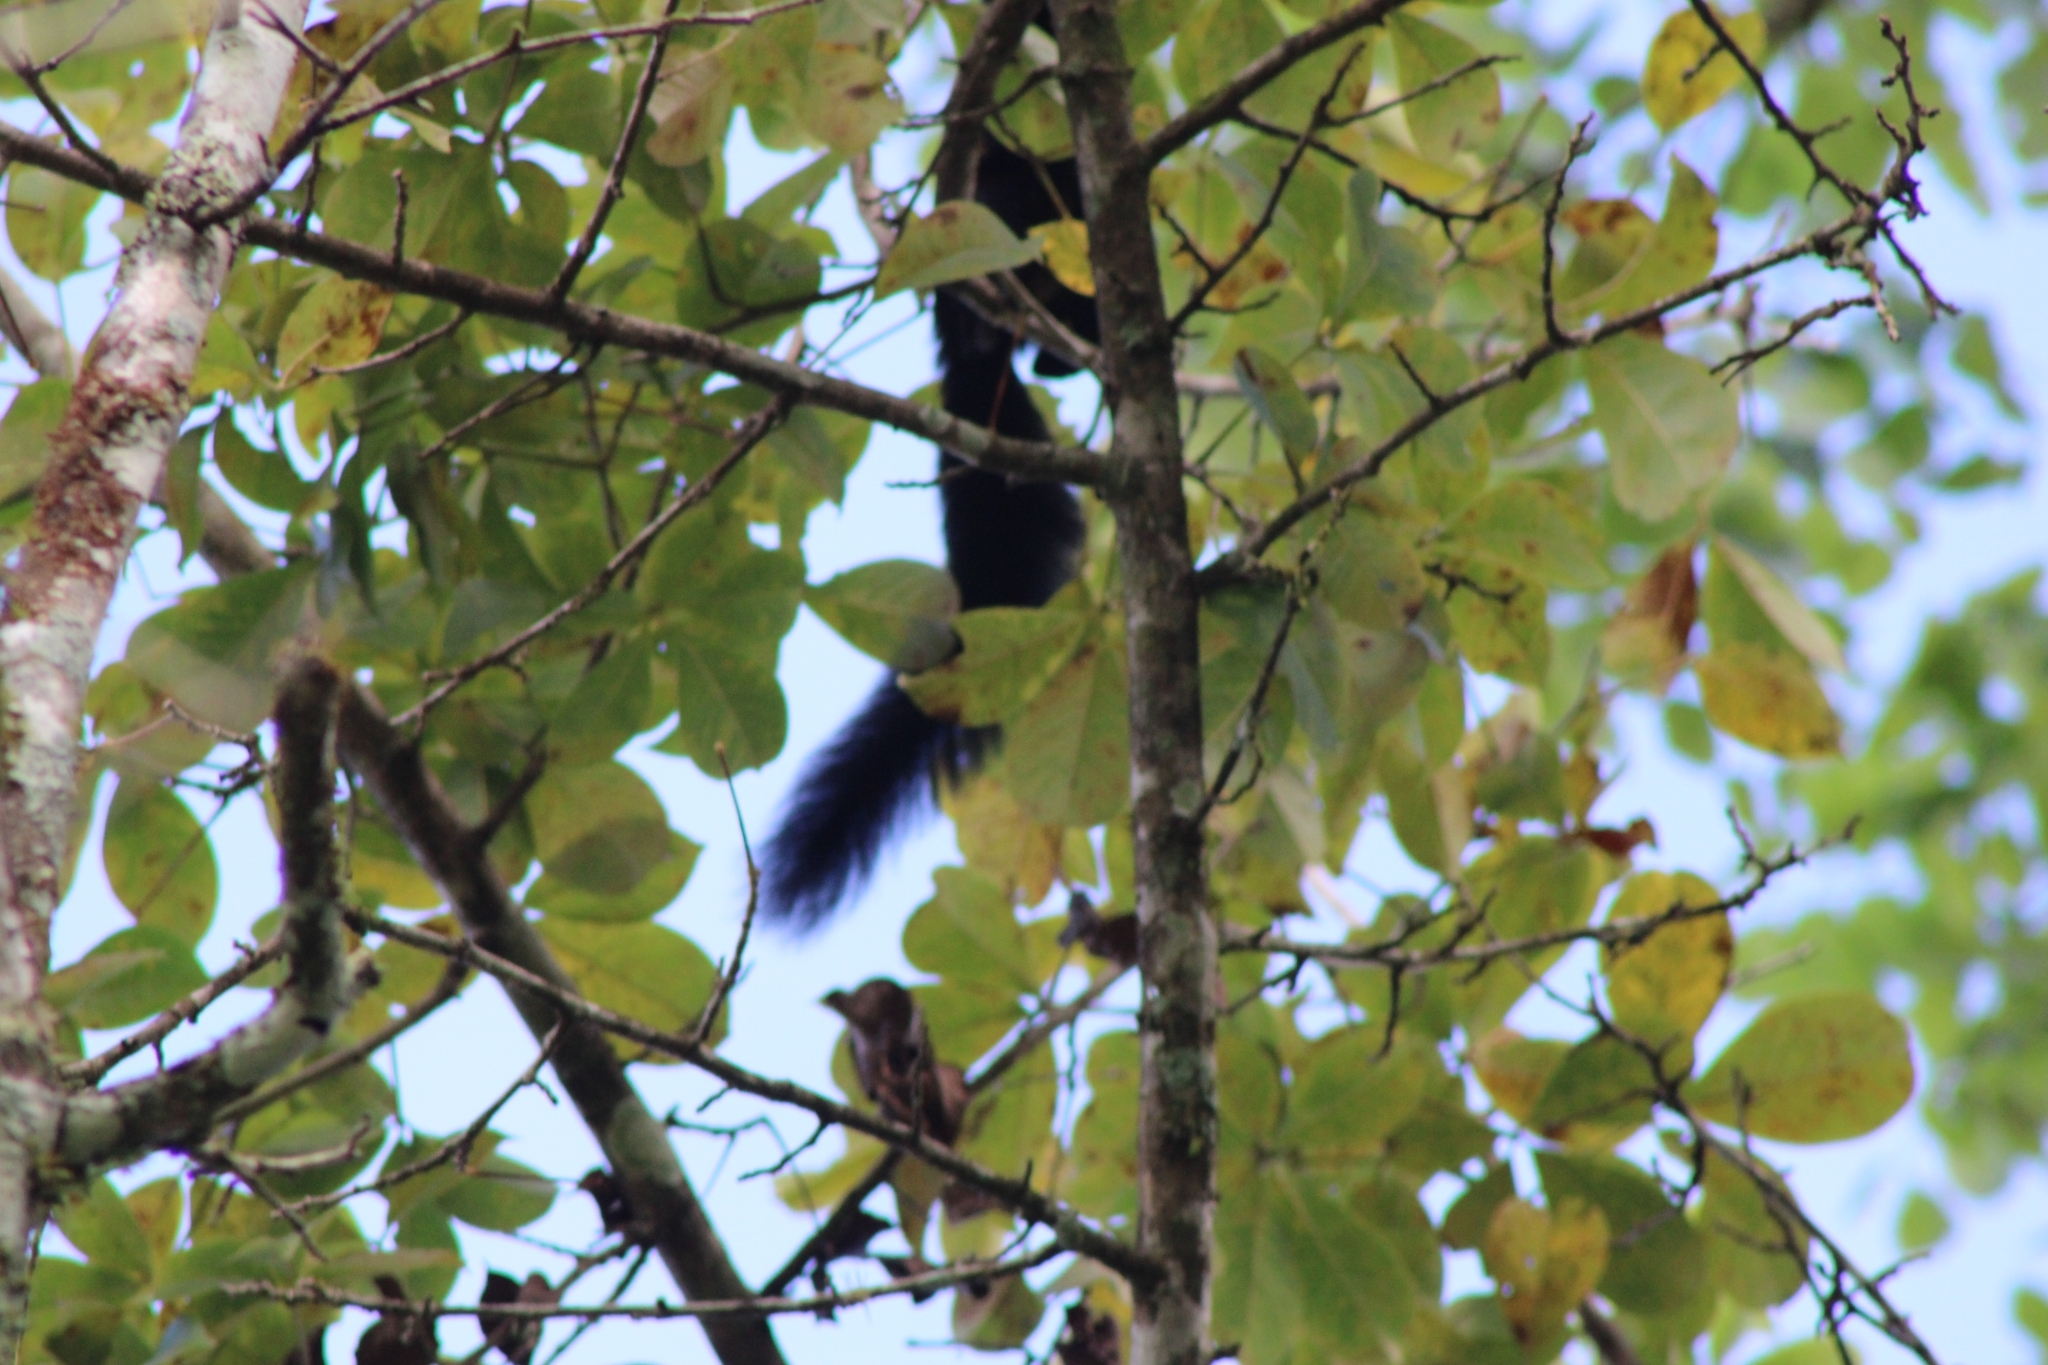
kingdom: Animalia
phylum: Chordata
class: Mammalia
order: Rodentia
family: Sciuridae
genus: Sciurus
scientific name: Sciurus variegatoides
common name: Variegated squirrel
